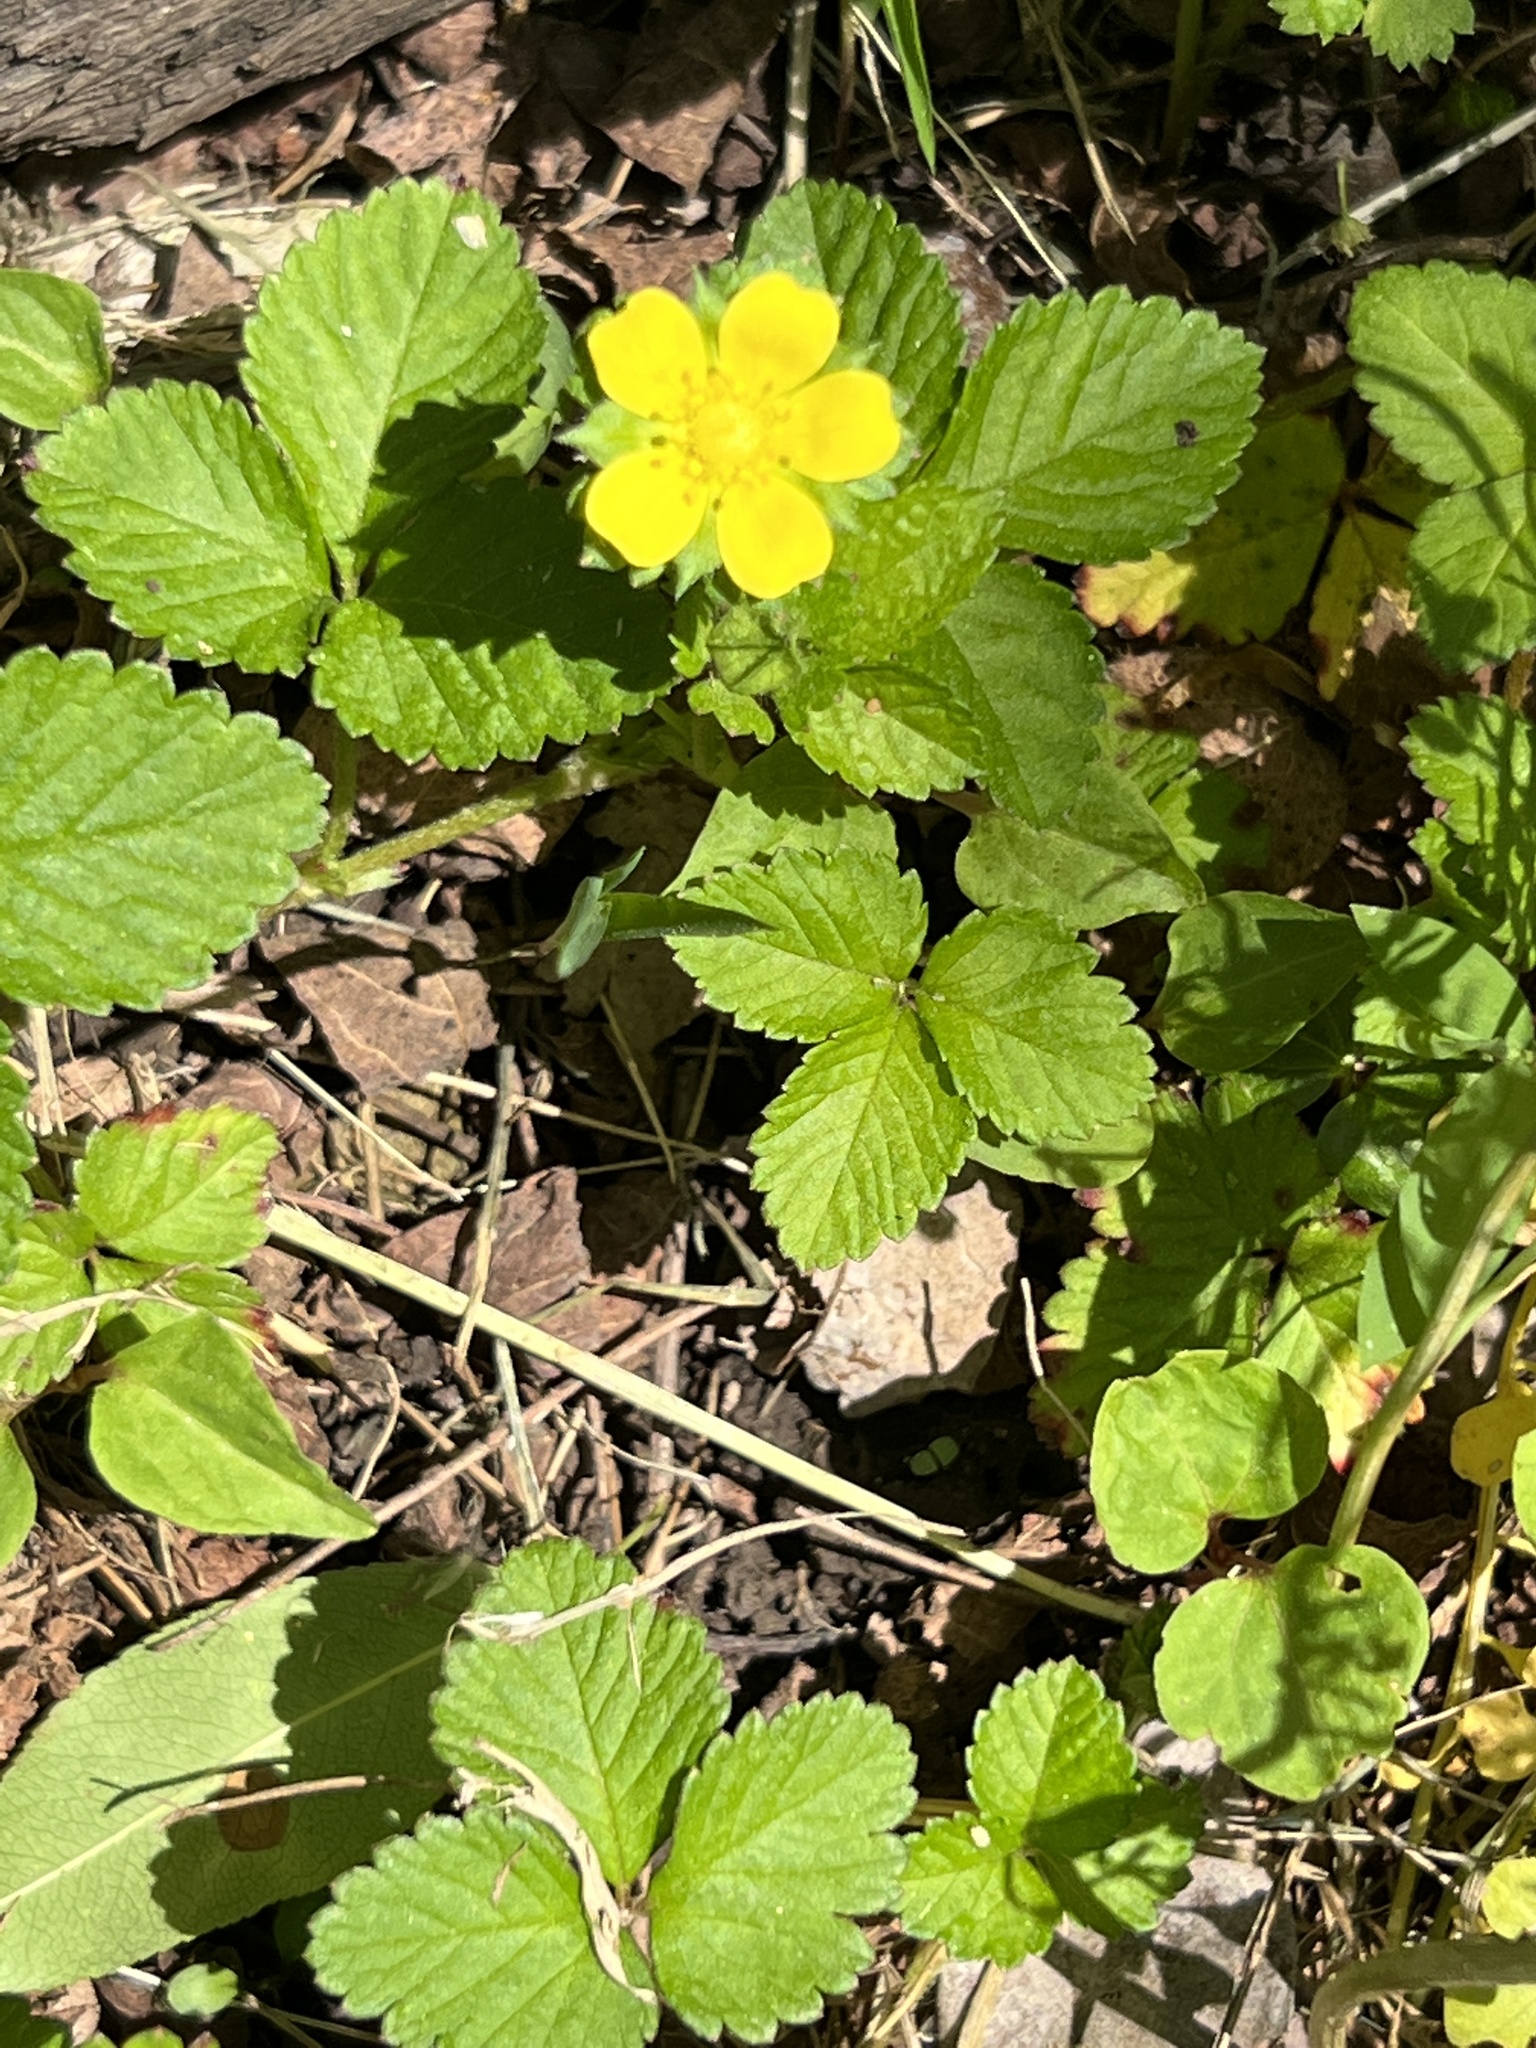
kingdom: Plantae
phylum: Tracheophyta
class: Magnoliopsida
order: Rosales
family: Rosaceae
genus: Potentilla
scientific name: Potentilla indica
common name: Yellow-flowered strawberry
